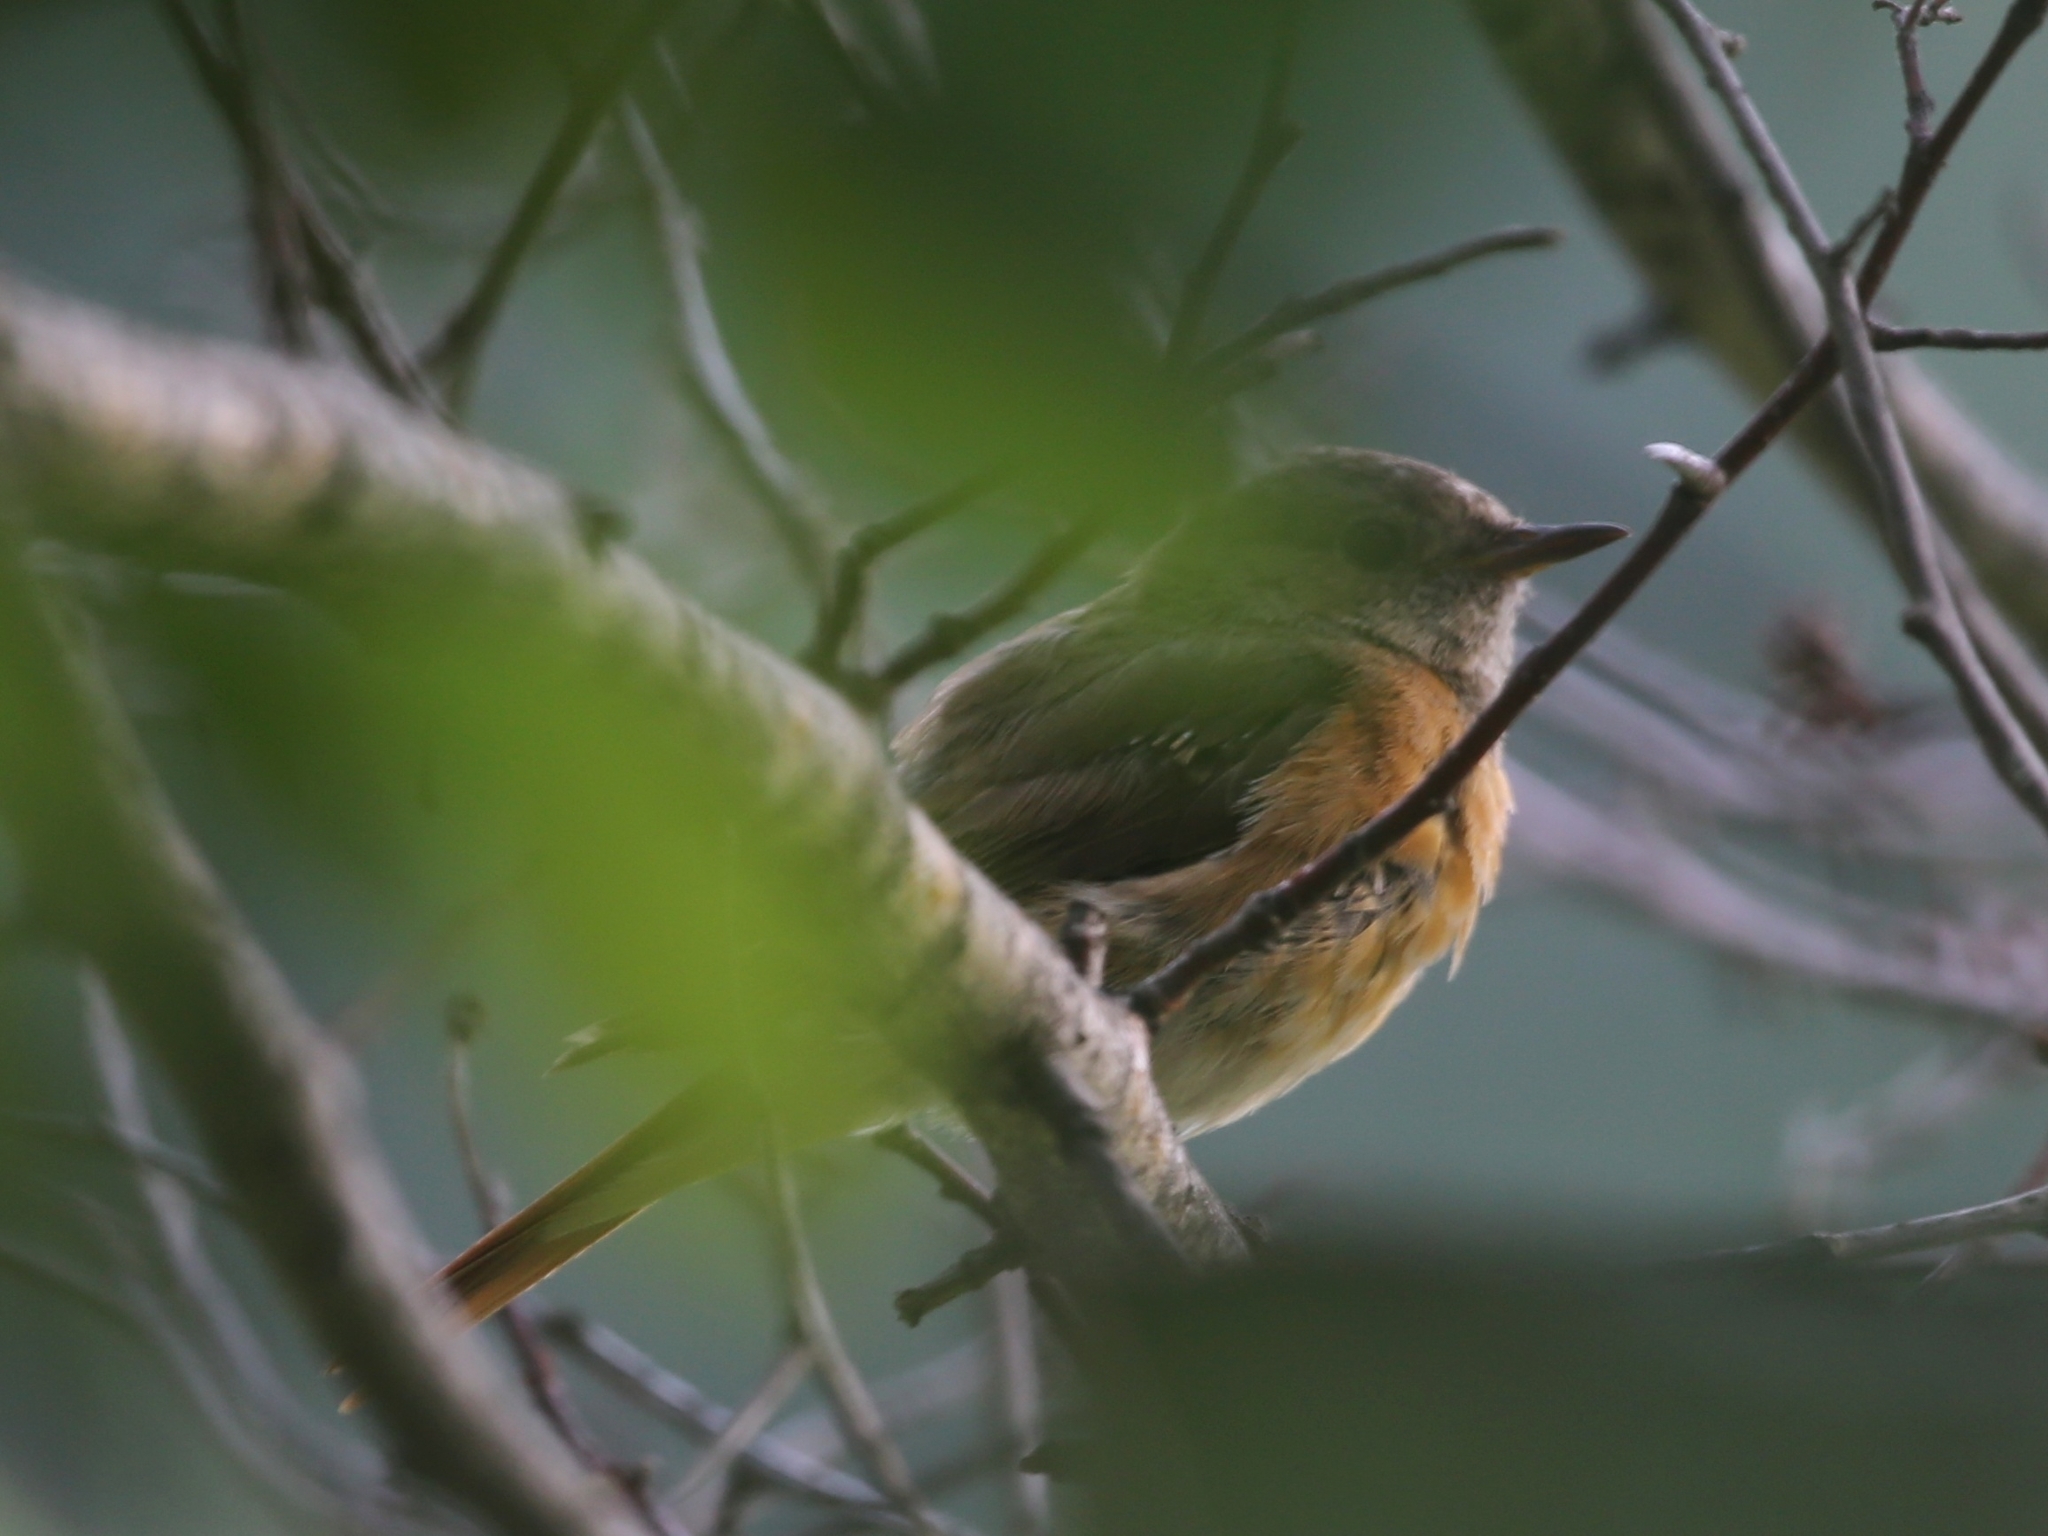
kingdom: Animalia
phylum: Chordata
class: Aves
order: Passeriformes
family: Muscicapidae
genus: Phoenicurus
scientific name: Phoenicurus phoenicurus
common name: Common redstart
